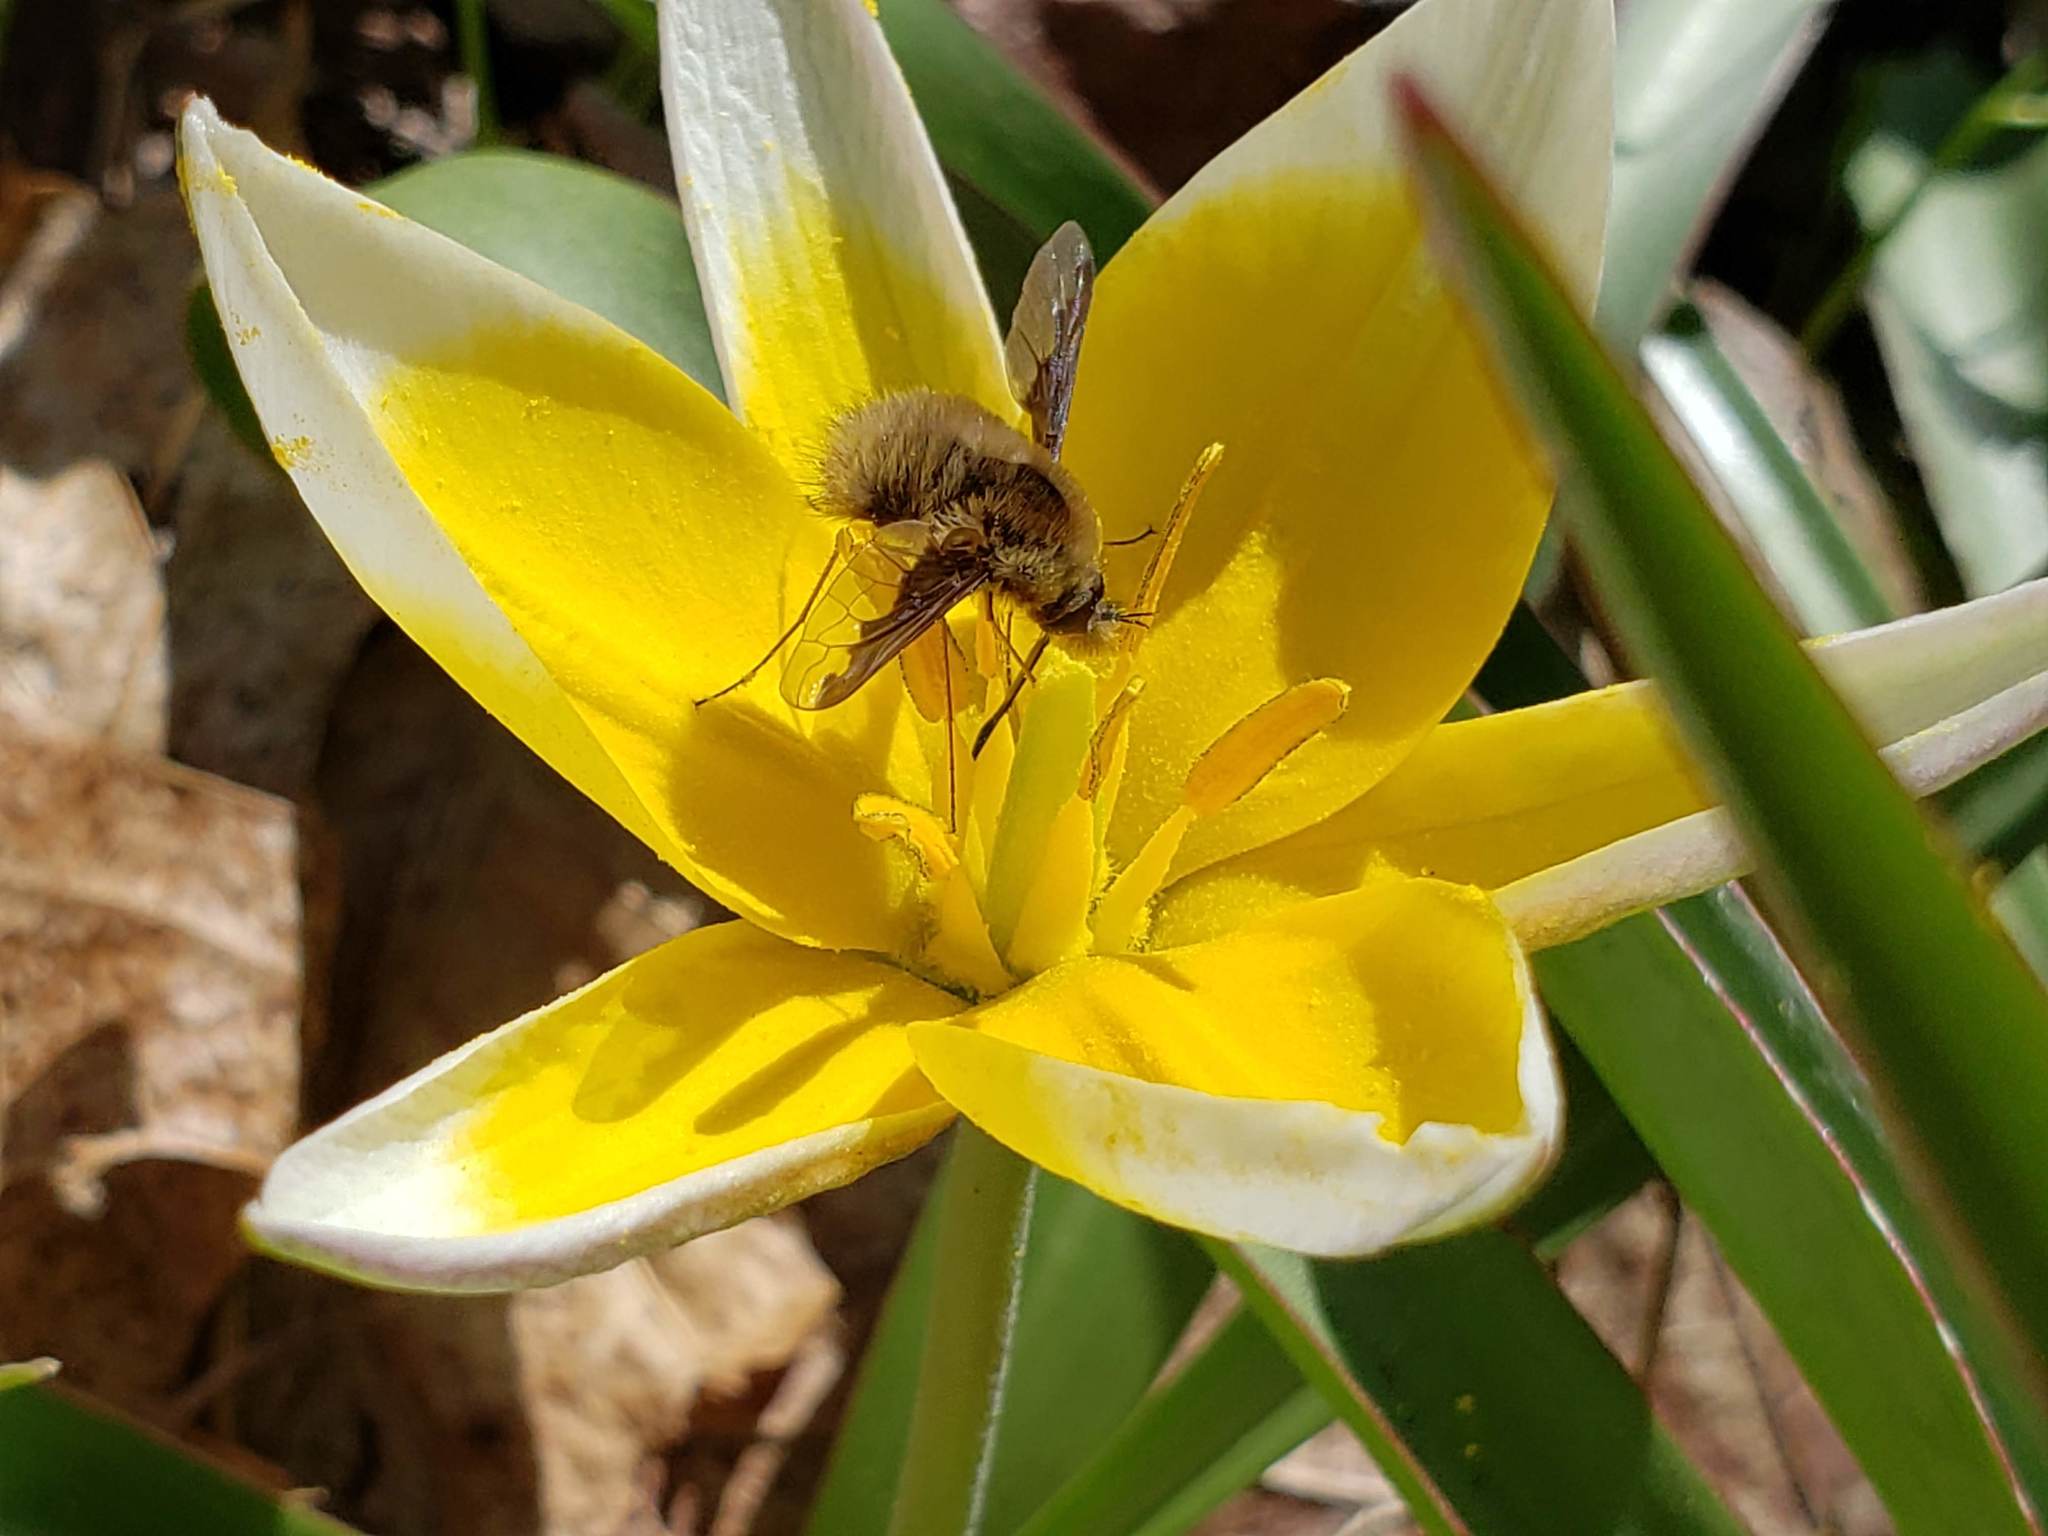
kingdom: Animalia
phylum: Arthropoda
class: Insecta
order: Diptera
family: Bombyliidae
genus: Bombylius
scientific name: Bombylius major
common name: Bee fly
